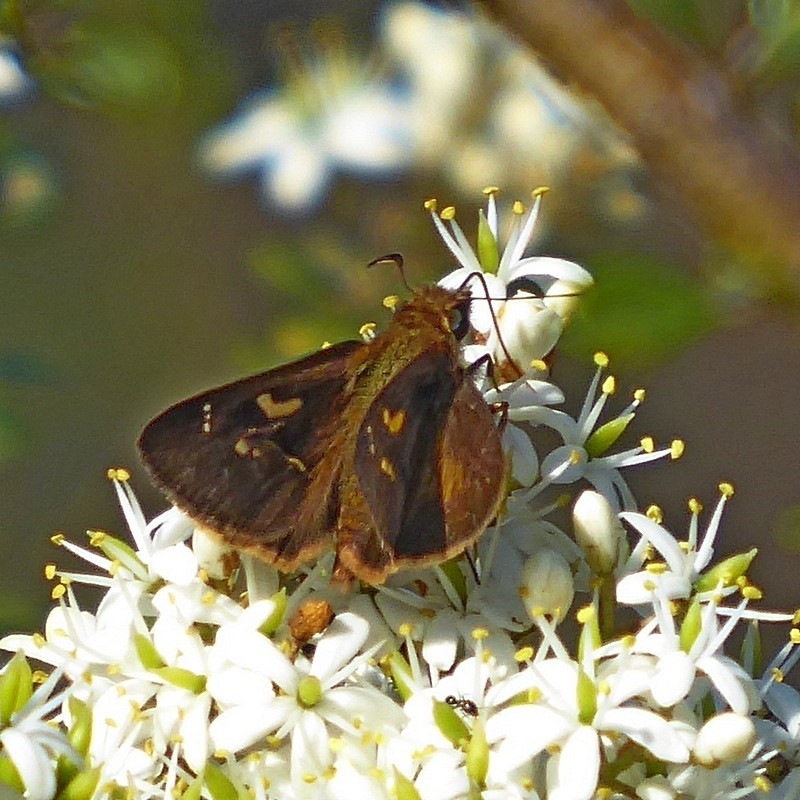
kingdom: Animalia
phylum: Arthropoda
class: Insecta
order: Lepidoptera
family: Hesperiidae
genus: Toxidia
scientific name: Toxidia doubledayi
